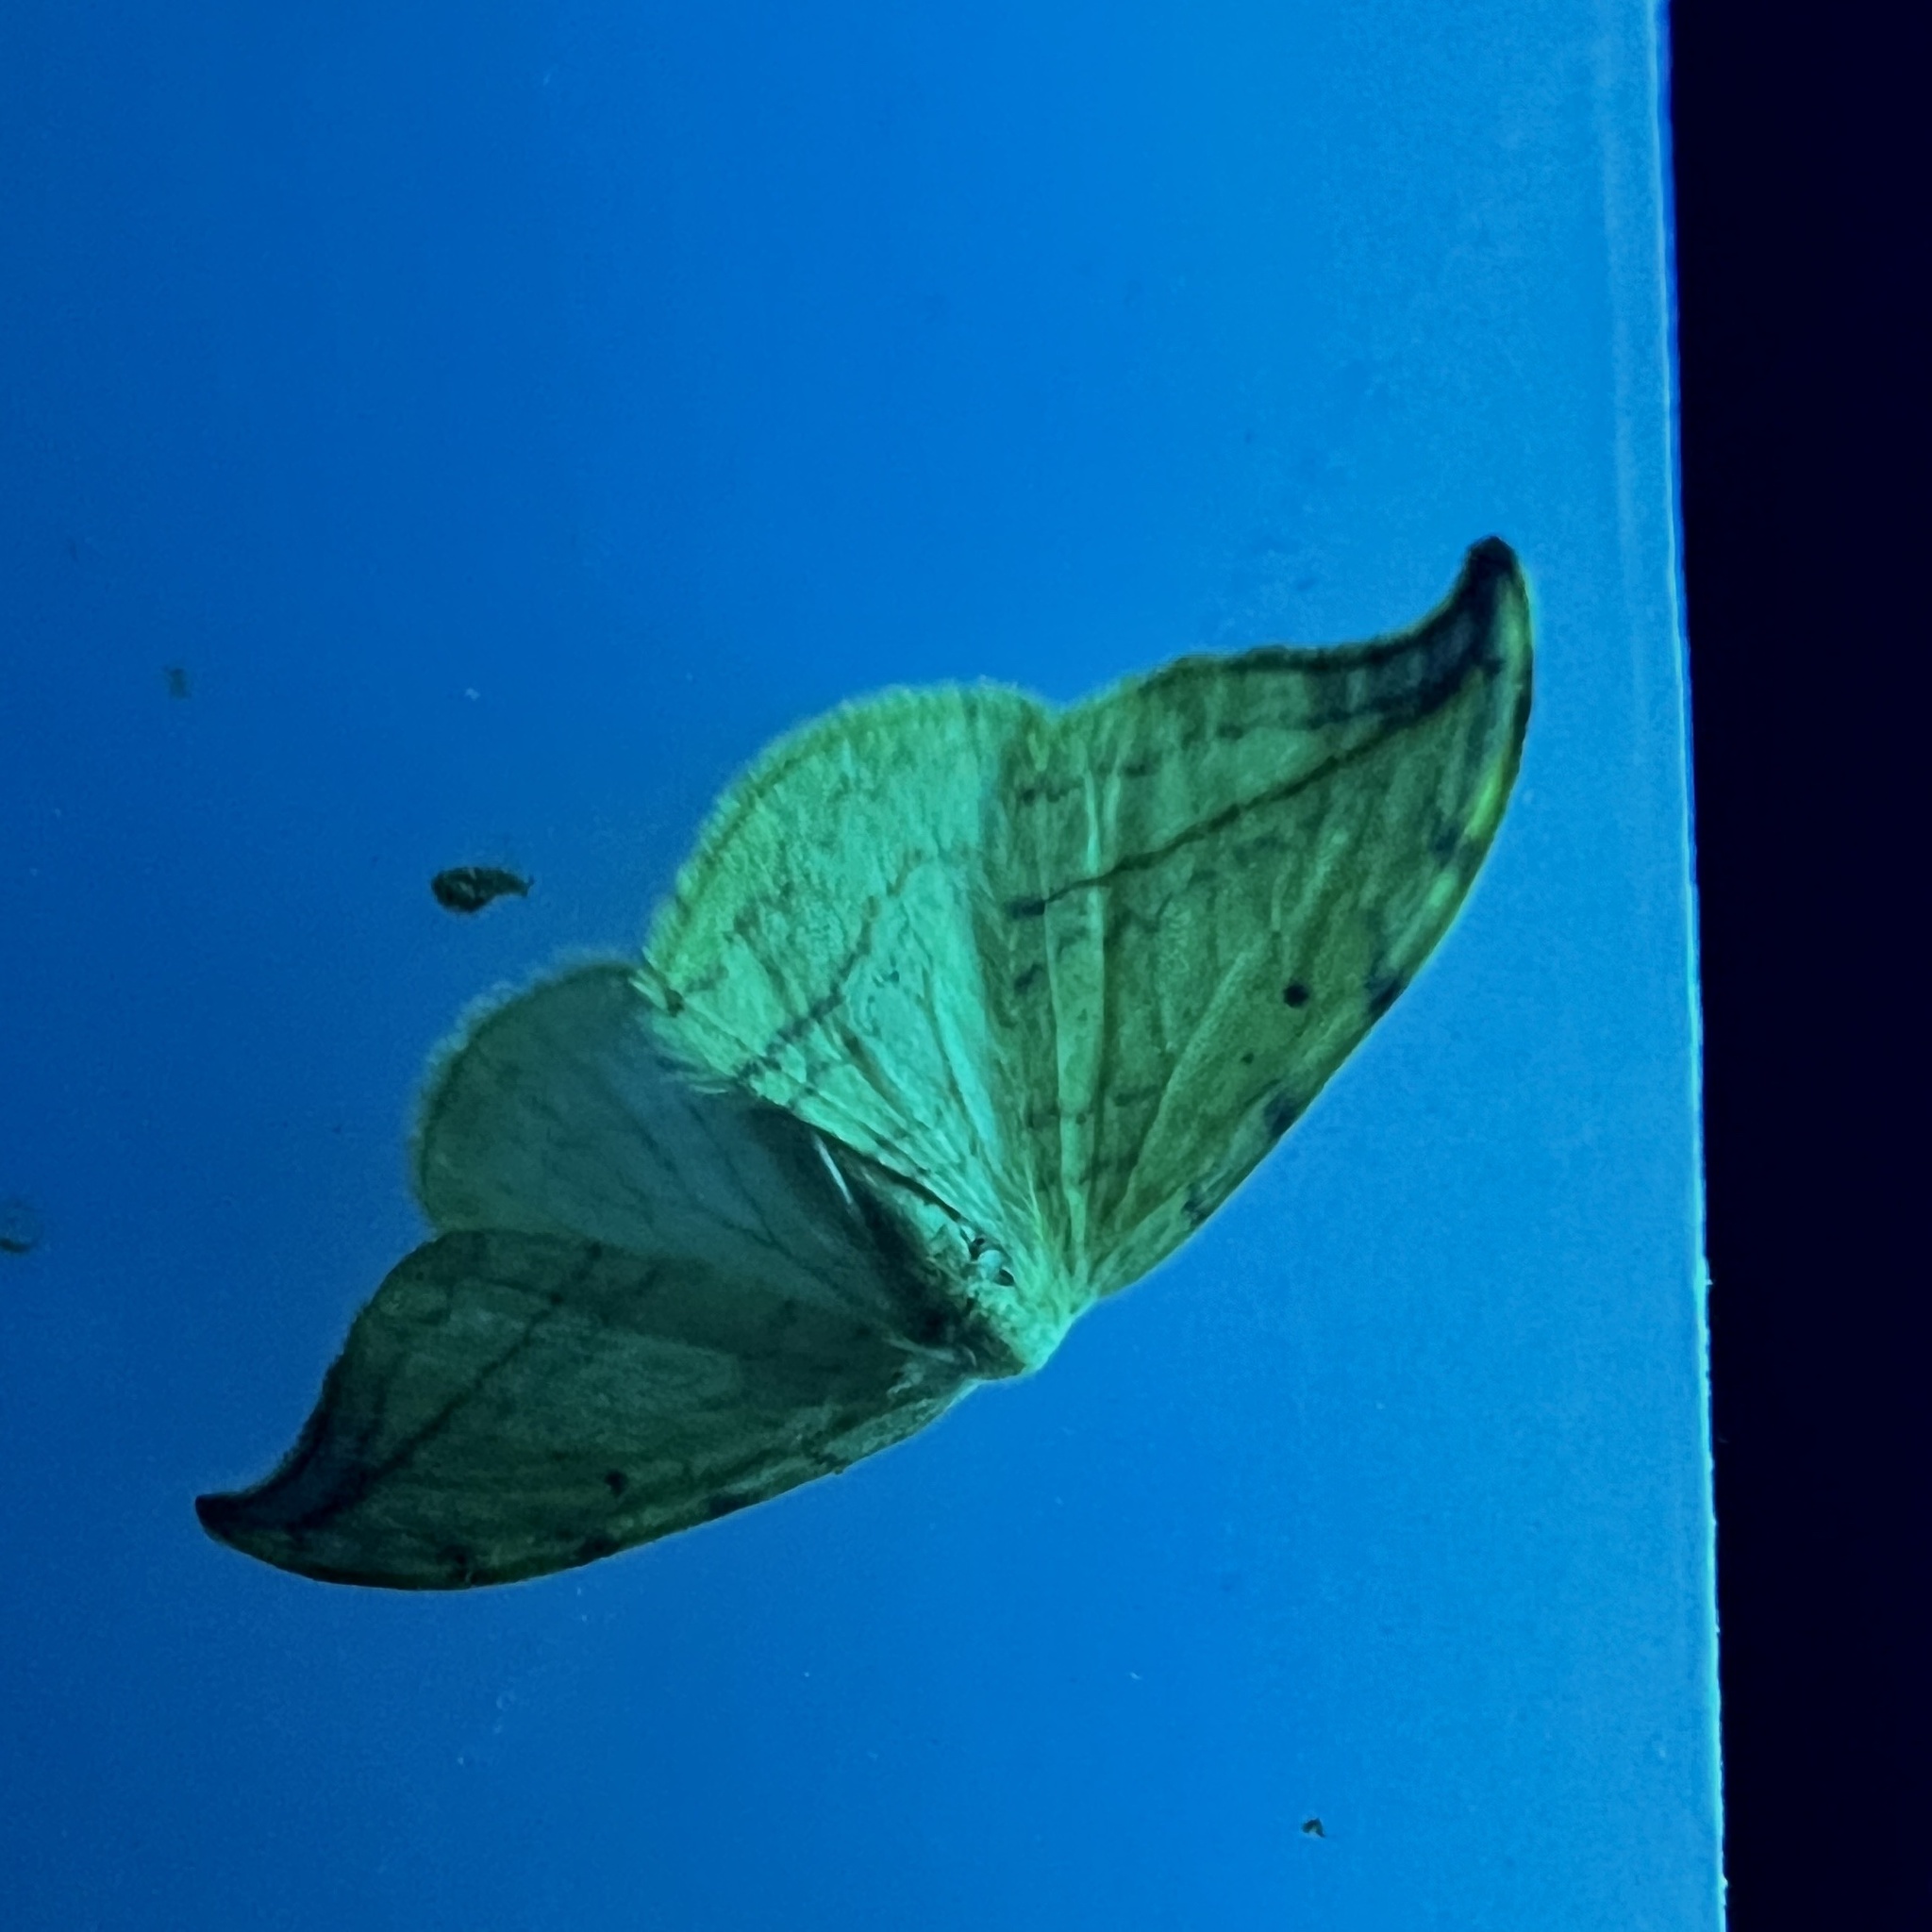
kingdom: Animalia
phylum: Arthropoda
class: Insecta
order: Lepidoptera
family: Drepanidae
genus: Drepana
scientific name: Drepana arcuata
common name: Arched hooktip moth
